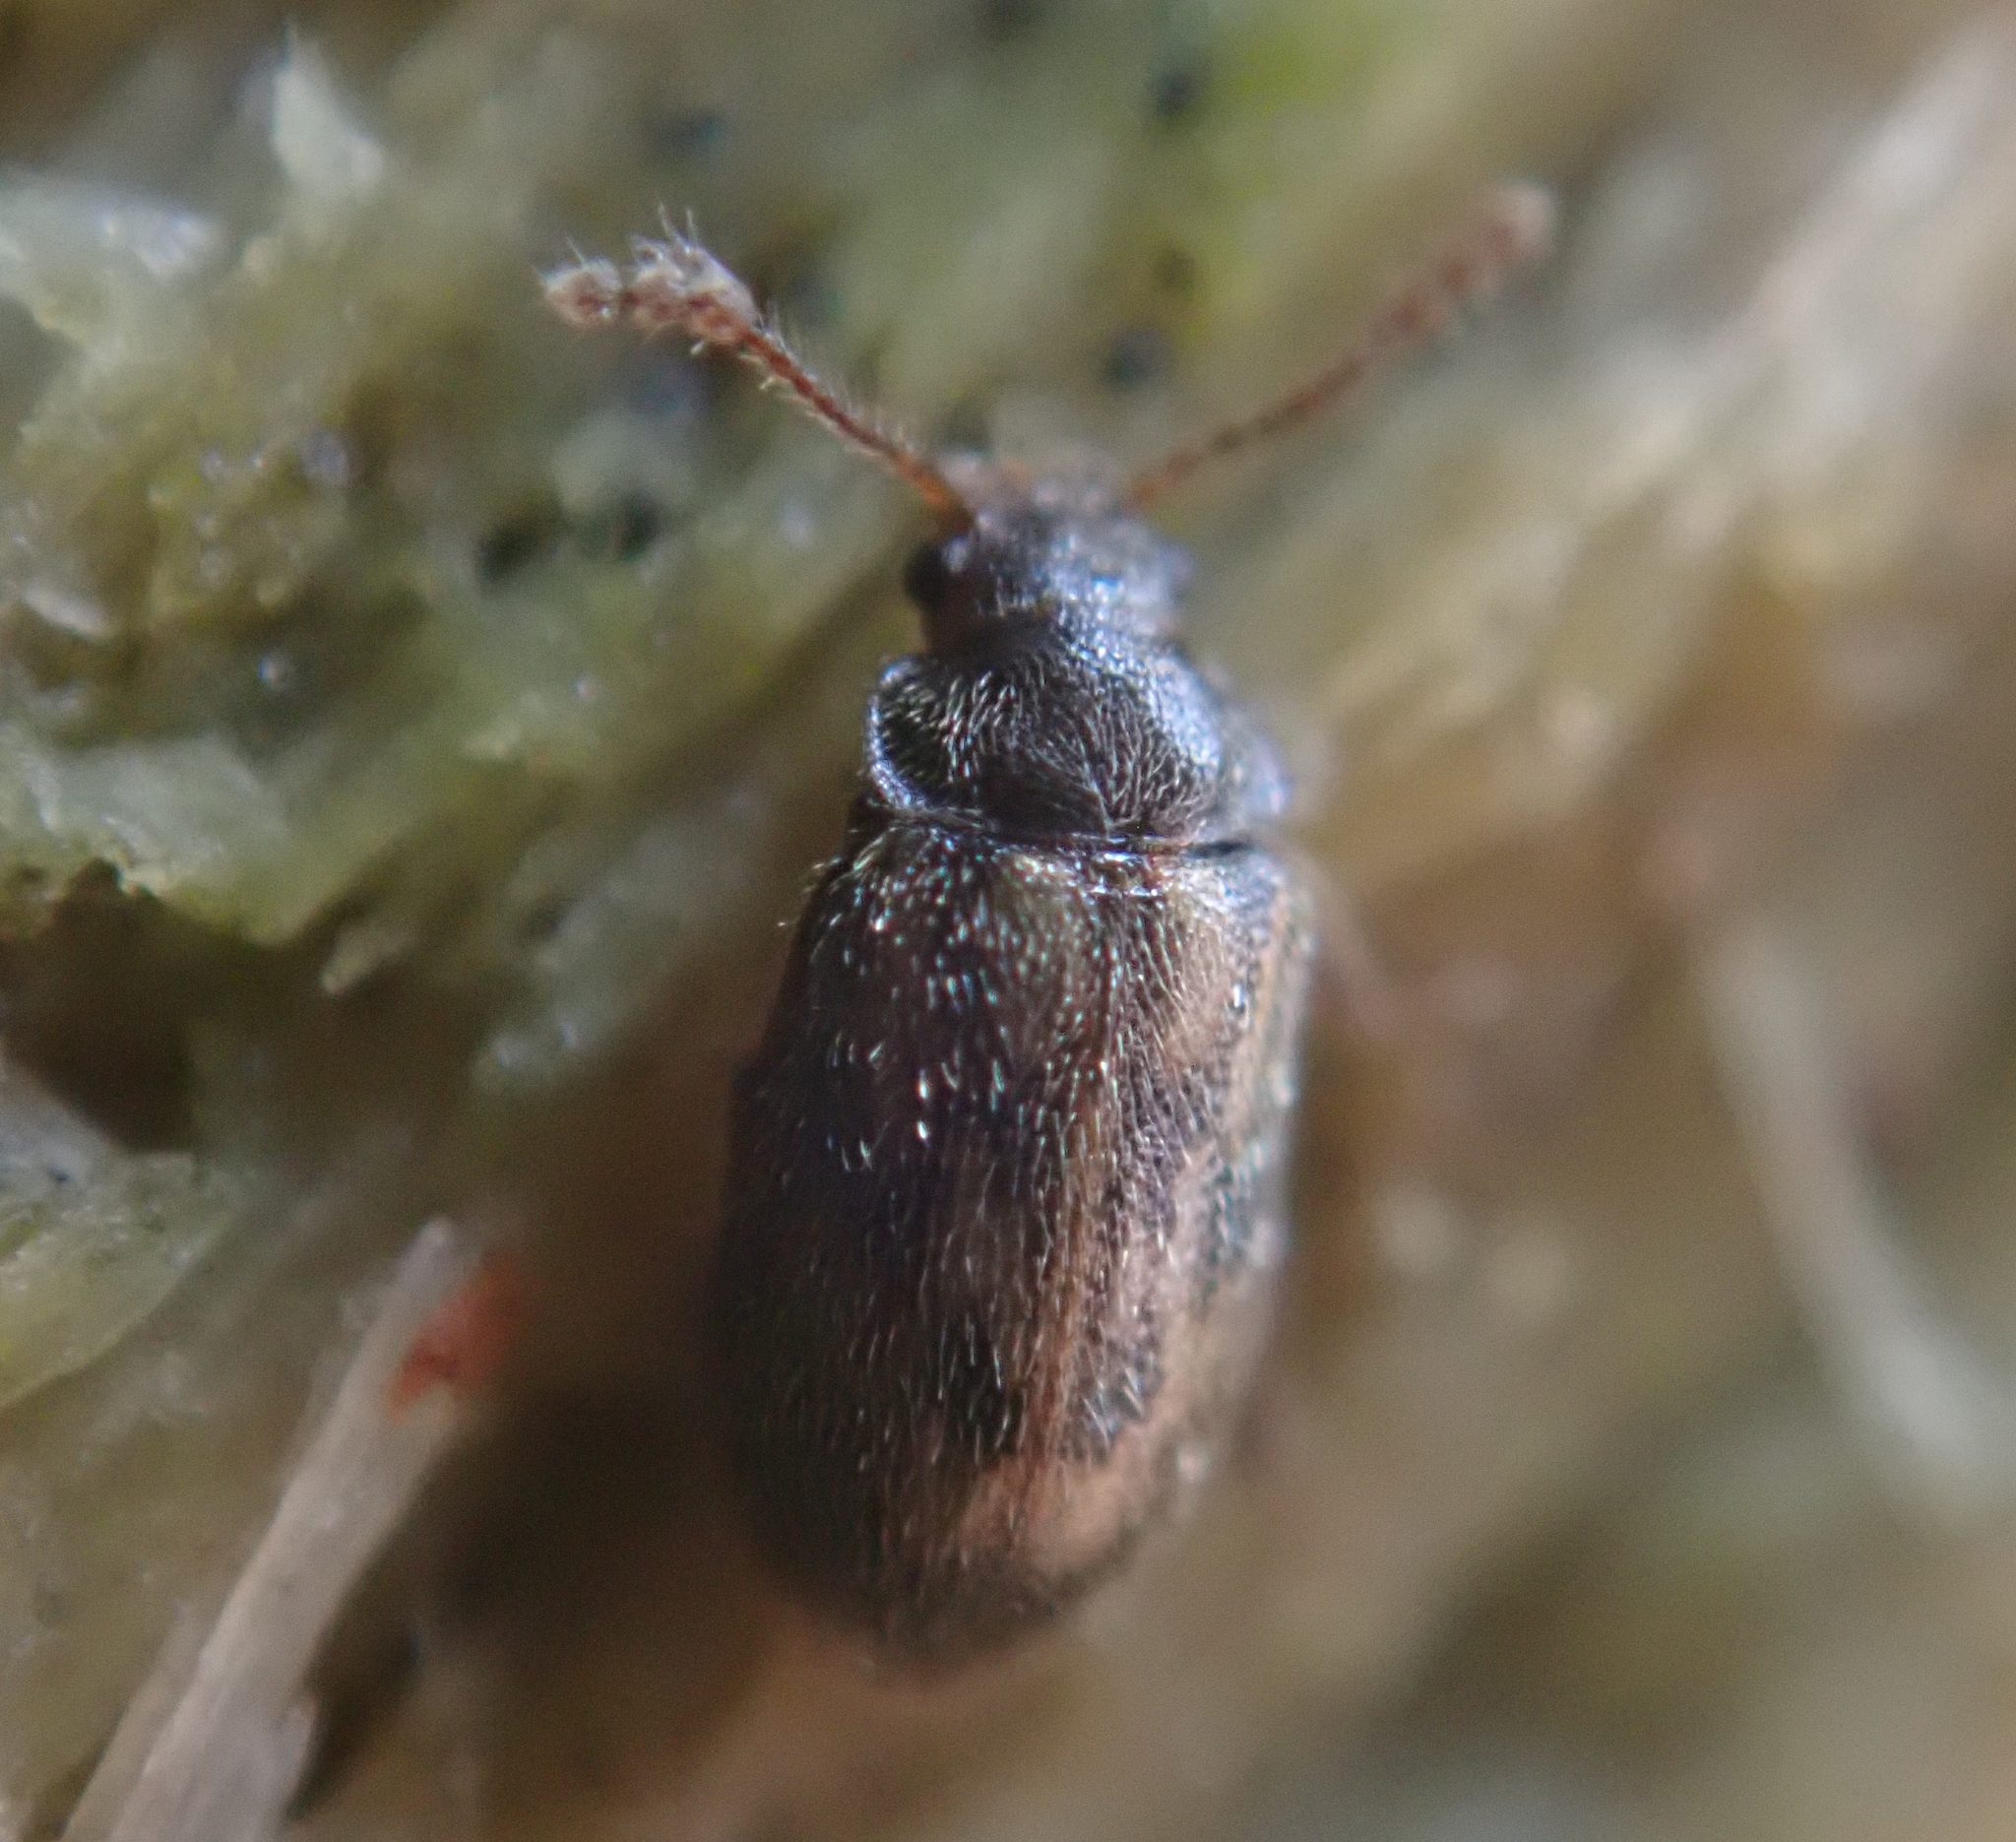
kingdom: Animalia
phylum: Arthropoda
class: Insecta
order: Coleoptera
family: Phloiophilidae
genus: Phloiophilus
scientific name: Phloiophilus edwardsii
